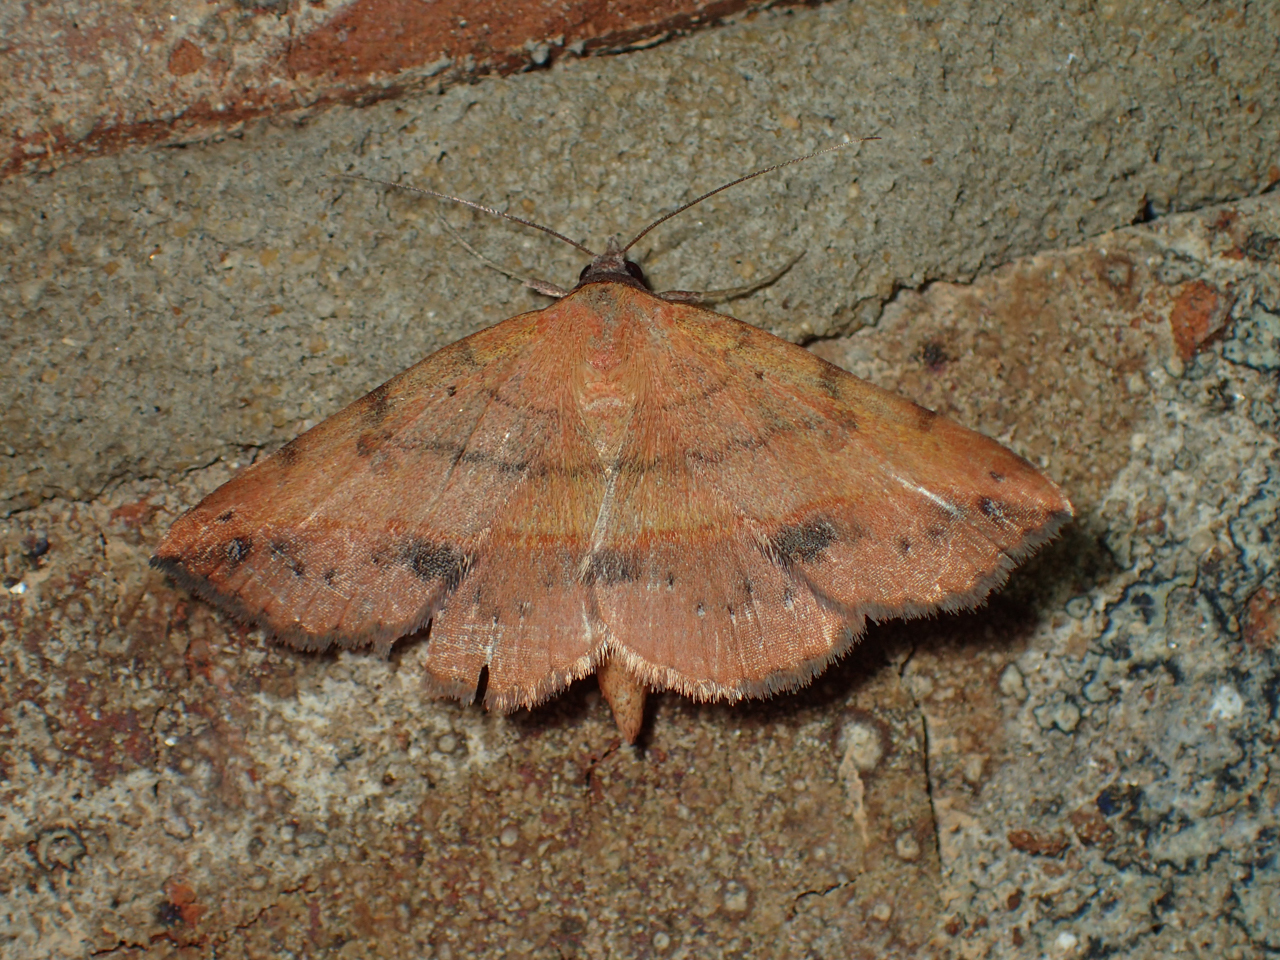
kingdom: Animalia
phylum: Arthropoda
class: Insecta
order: Lepidoptera
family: Erebidae
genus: Hemeroplanis
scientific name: Hemeroplanis scopulepes
